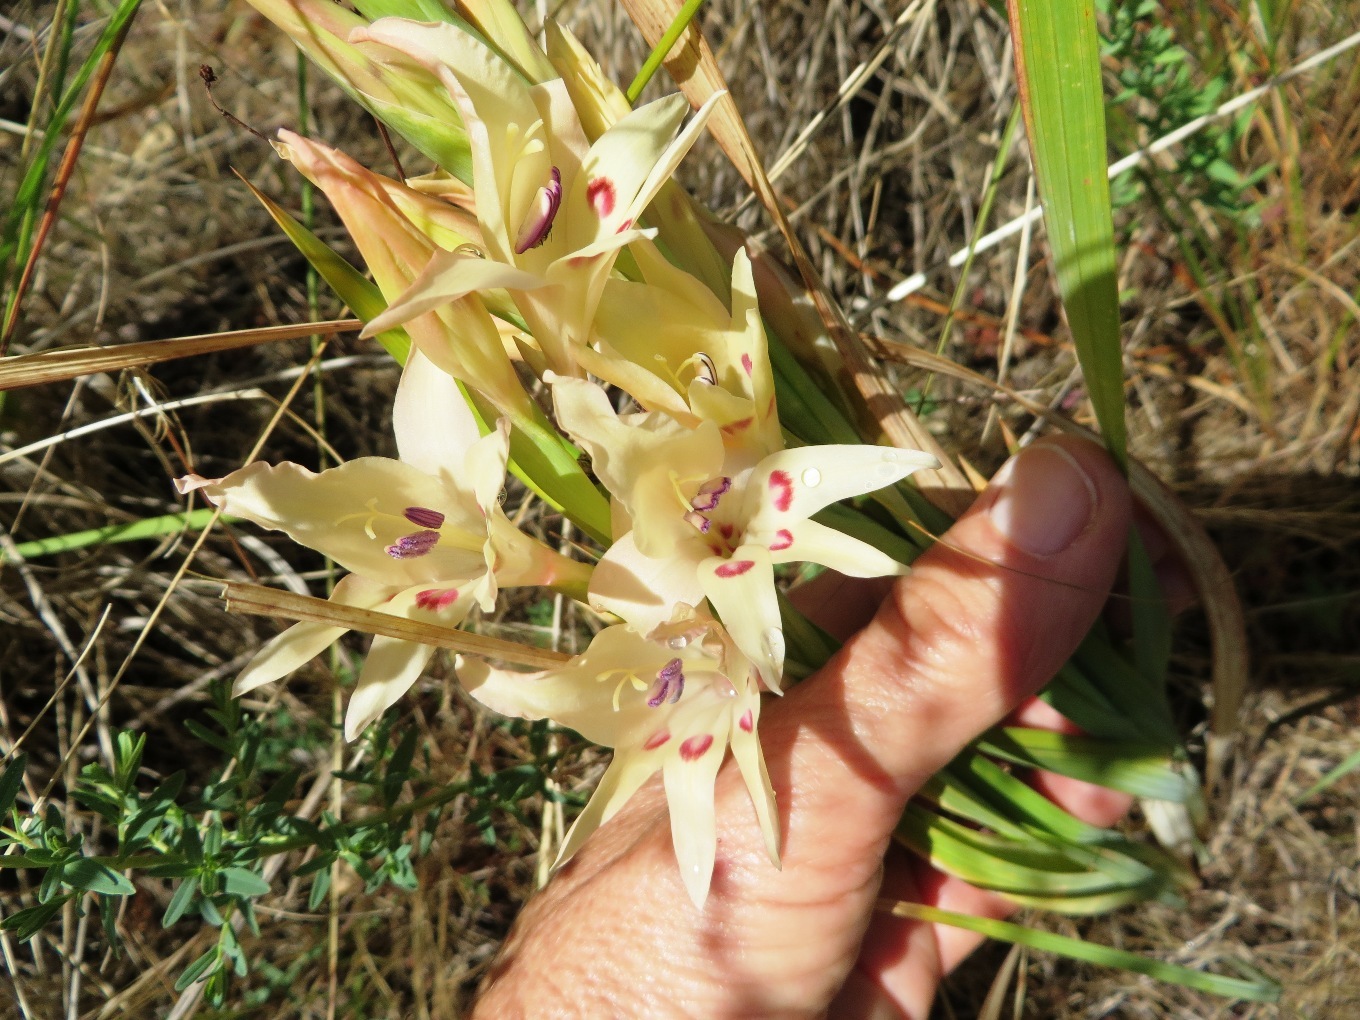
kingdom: Plantae
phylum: Tracheophyta
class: Liliopsida
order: Asparagales
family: Iridaceae
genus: Gladiolus
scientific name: Gladiolus undulatus
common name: Large painted-lady
